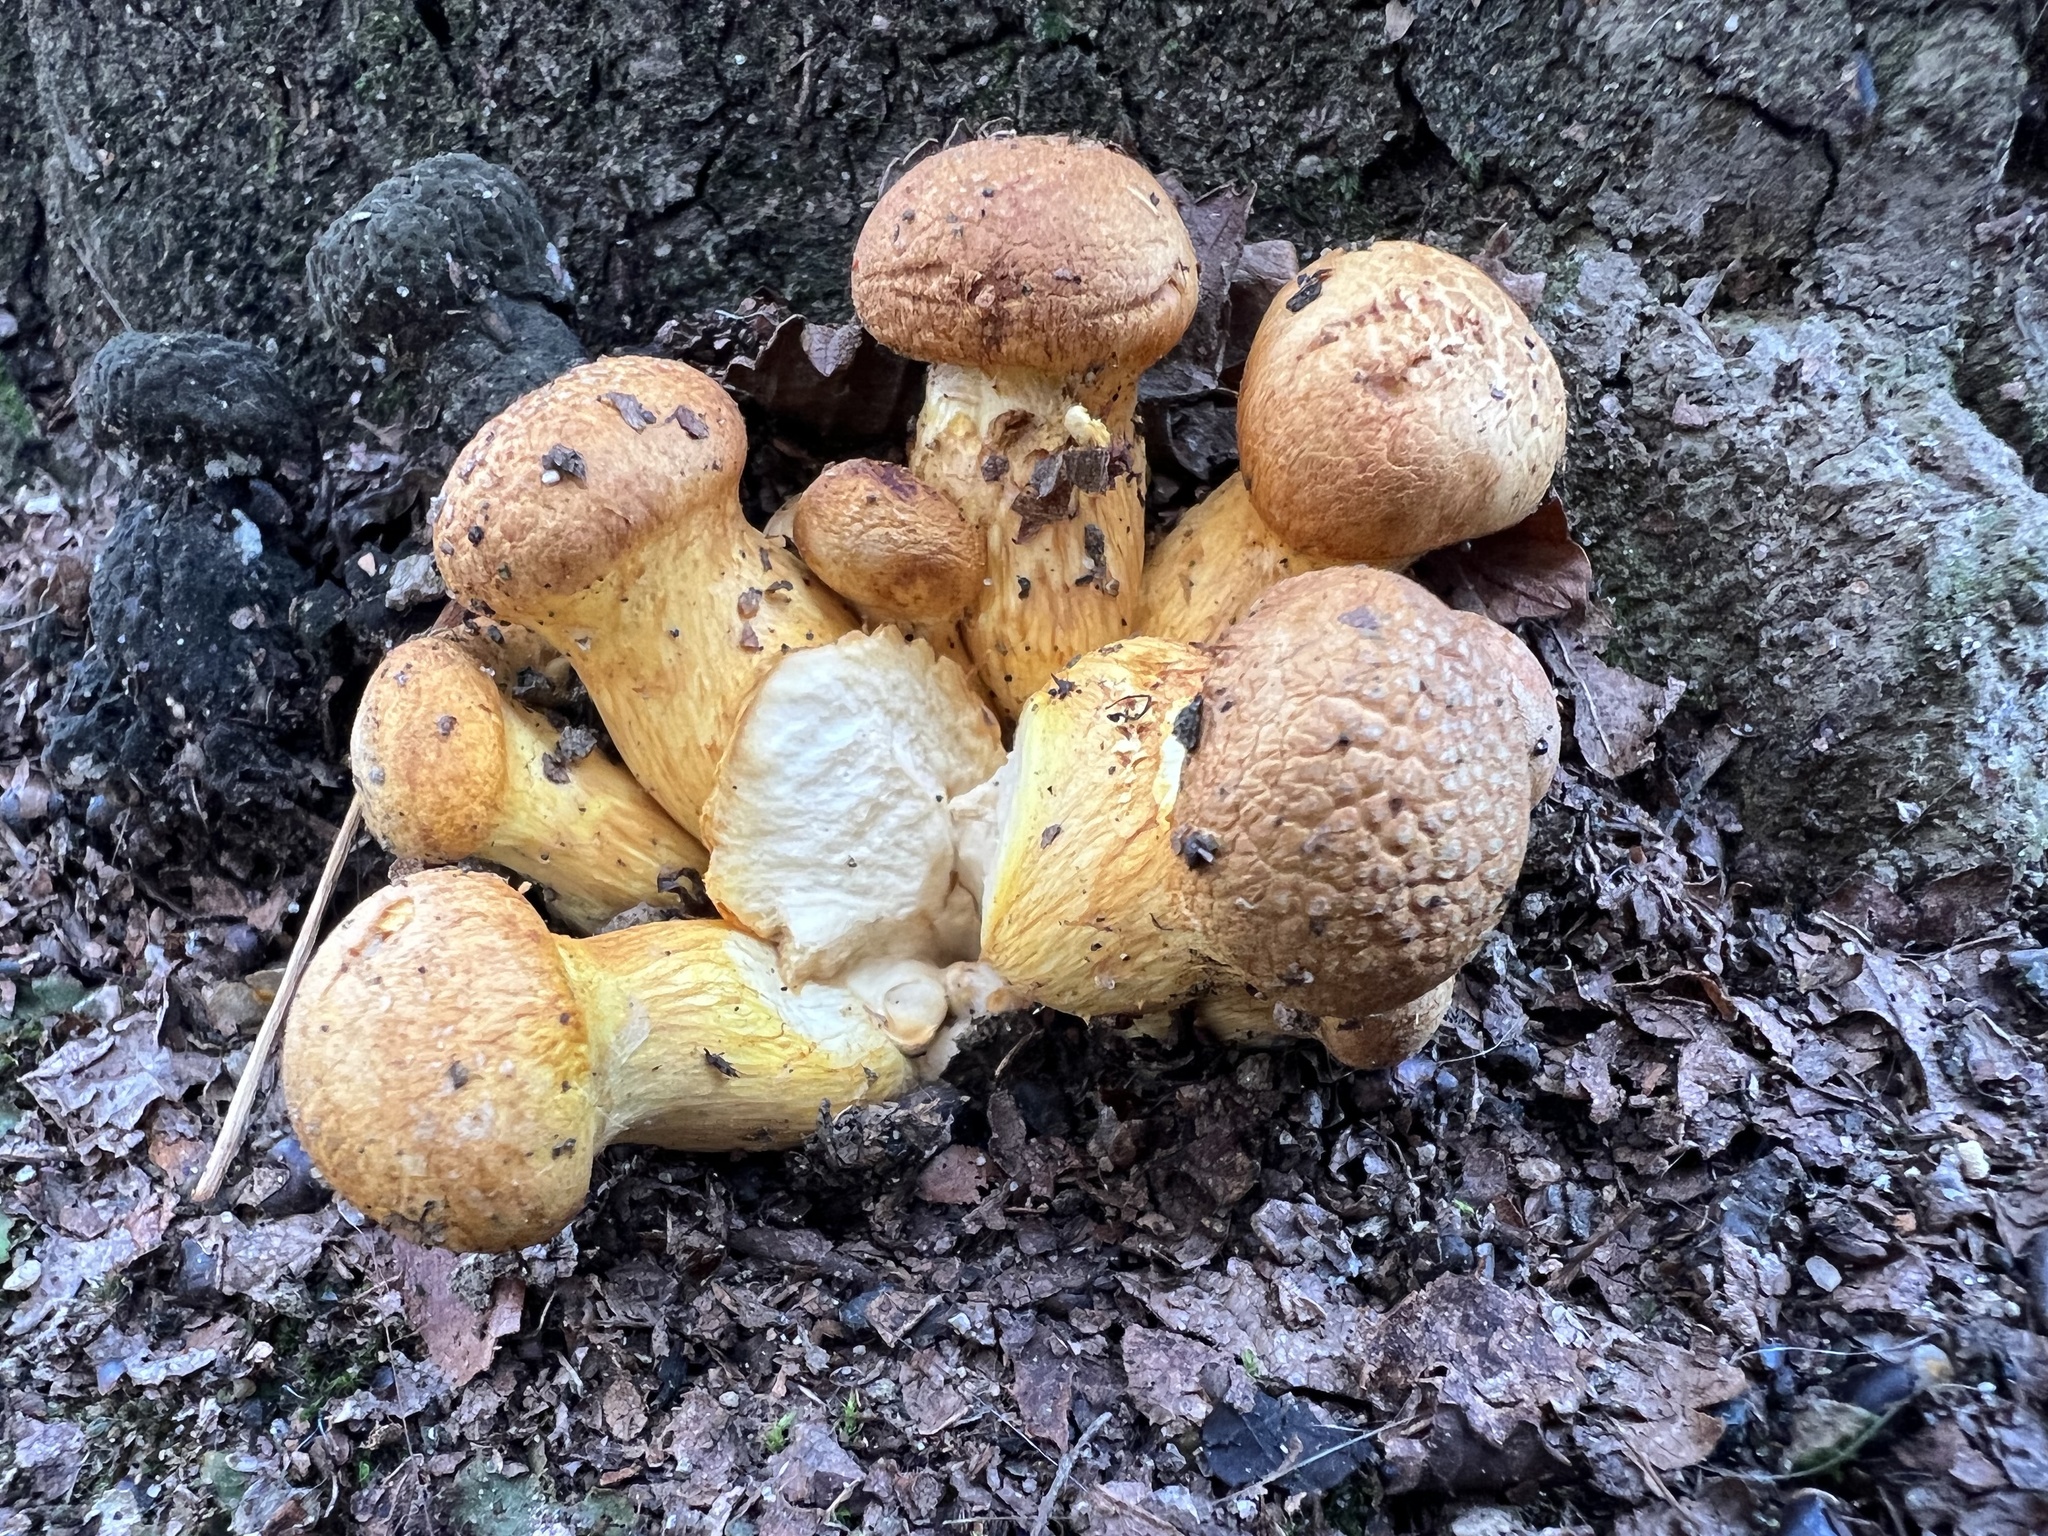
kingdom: Fungi
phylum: Basidiomycota
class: Agaricomycetes
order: Agaricales
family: Hymenogastraceae
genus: Gymnopilus
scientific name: Gymnopilus junonius
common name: Spectacular rustgill
